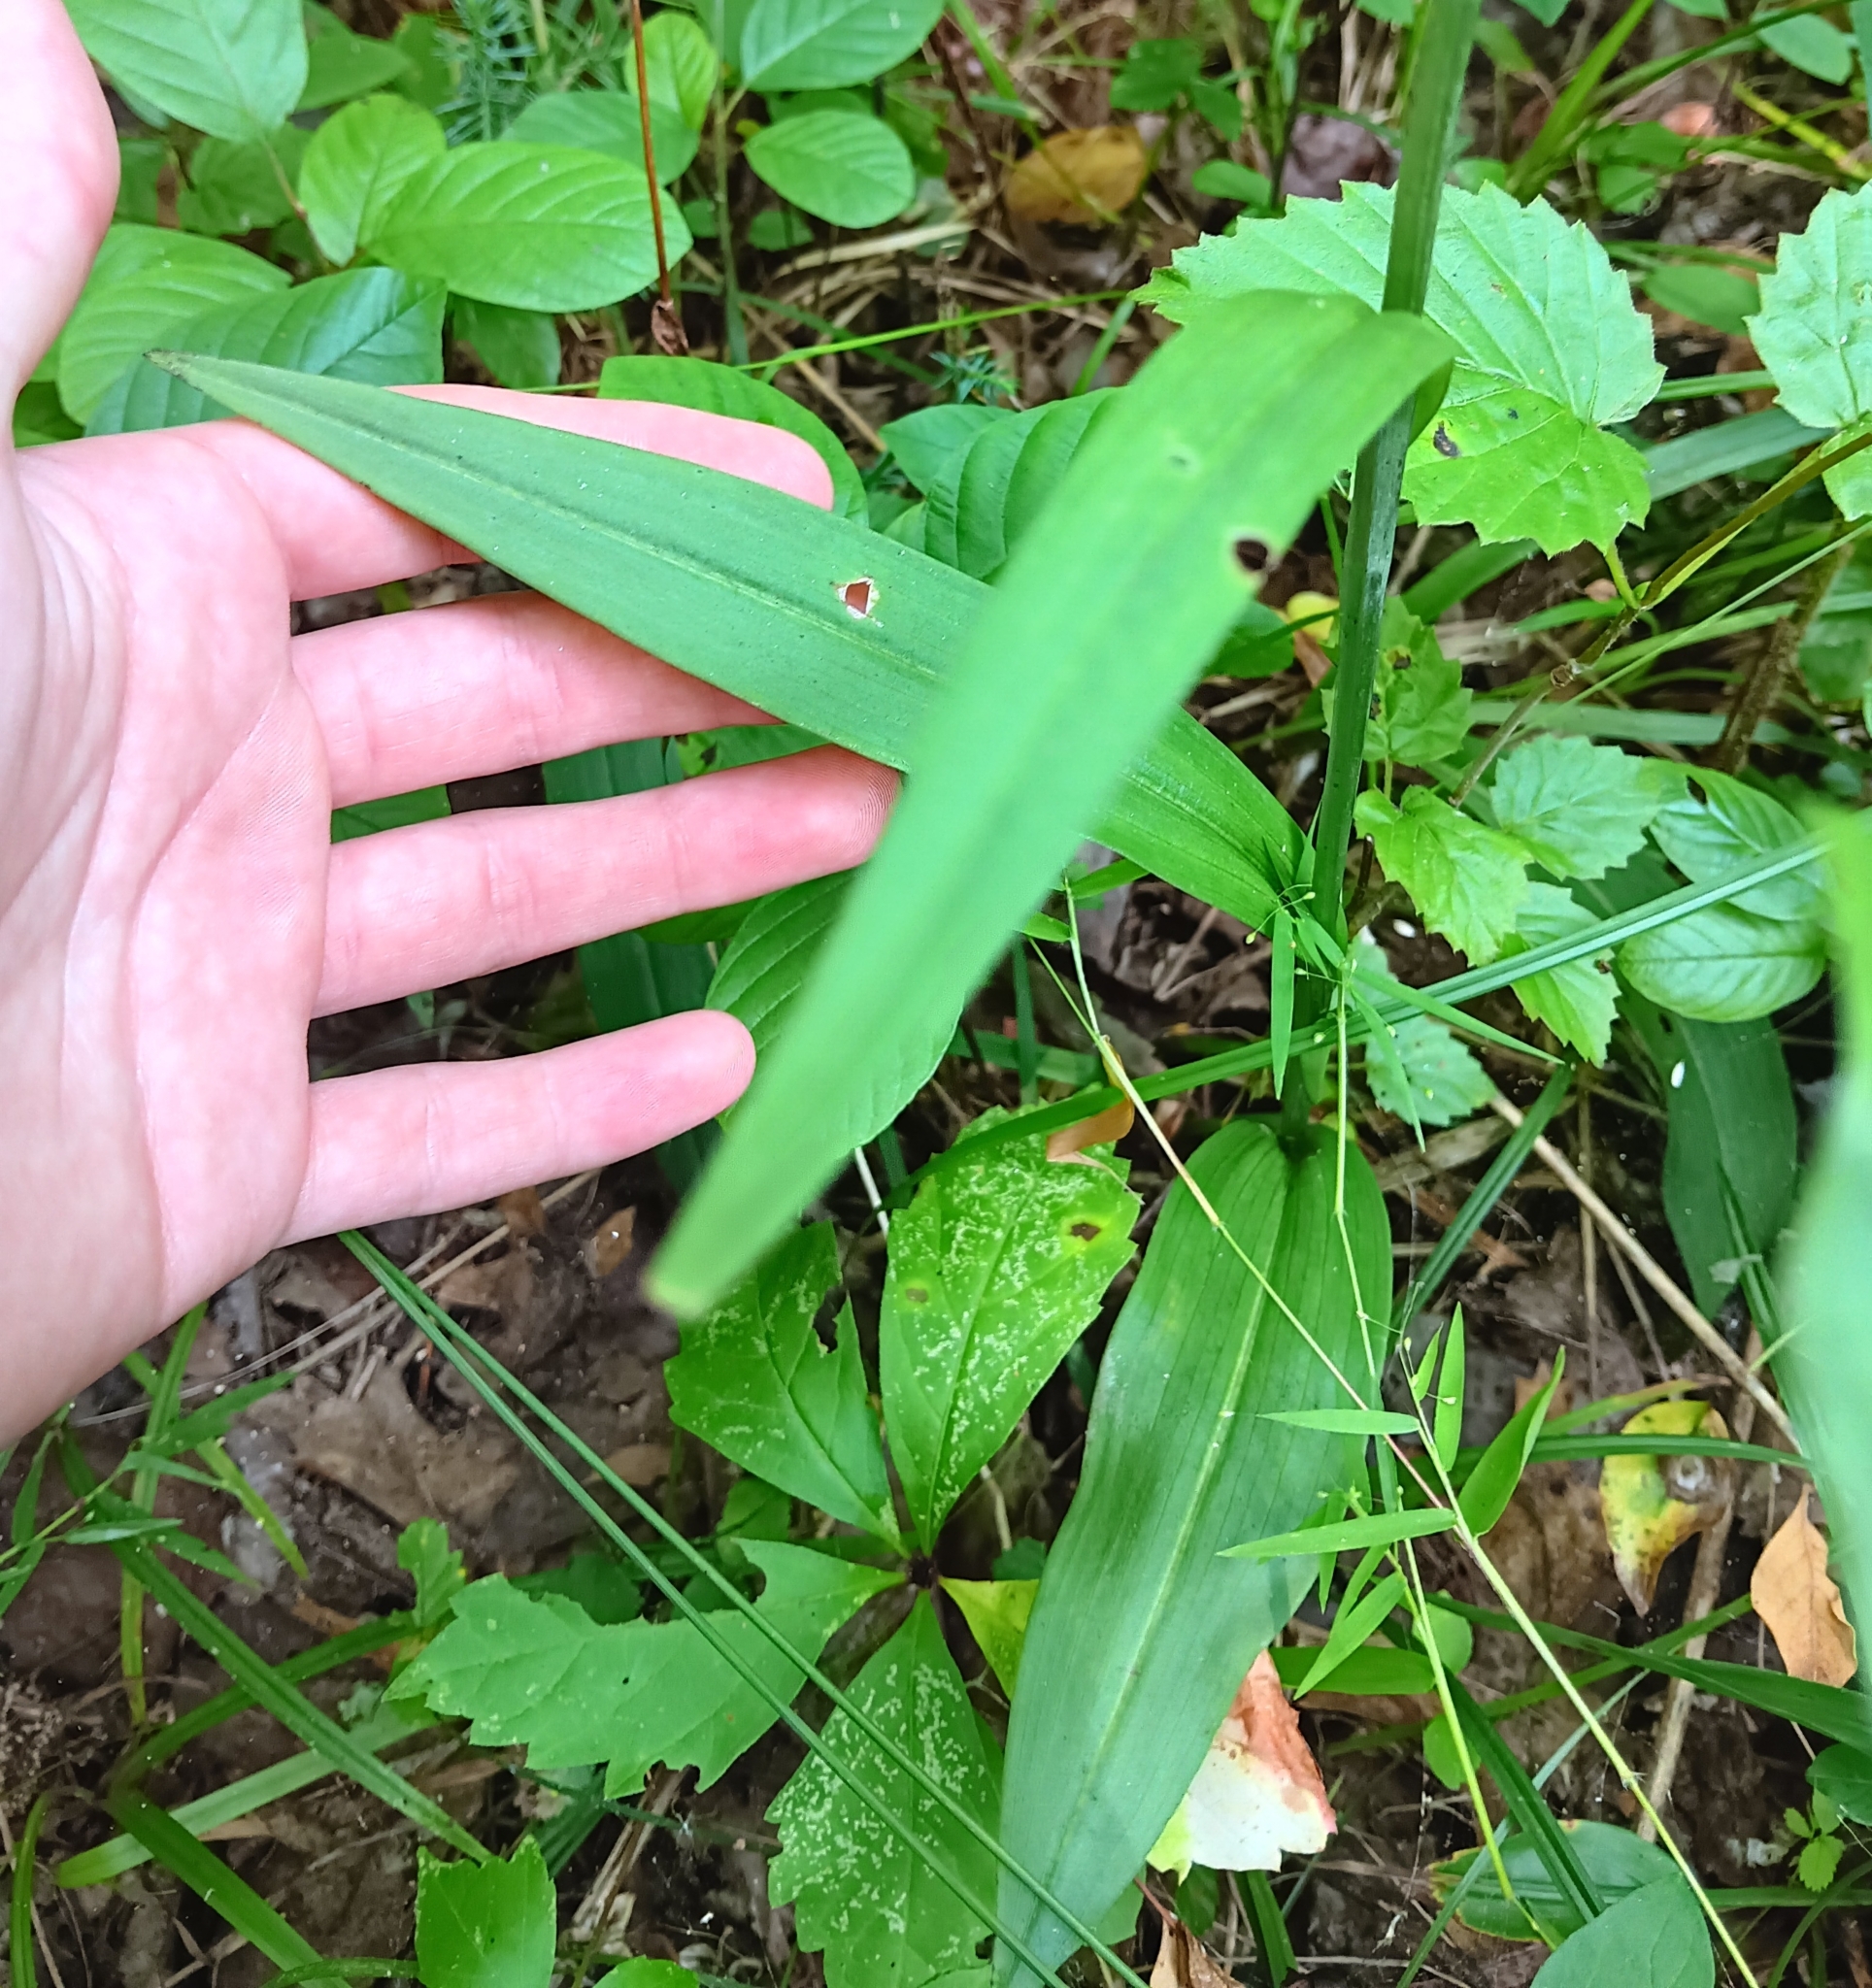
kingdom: Plantae
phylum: Tracheophyta
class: Liliopsida
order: Asparagales
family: Orchidaceae
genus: Platanthera
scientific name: Platanthera blephariglottis
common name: White fringed orchid
